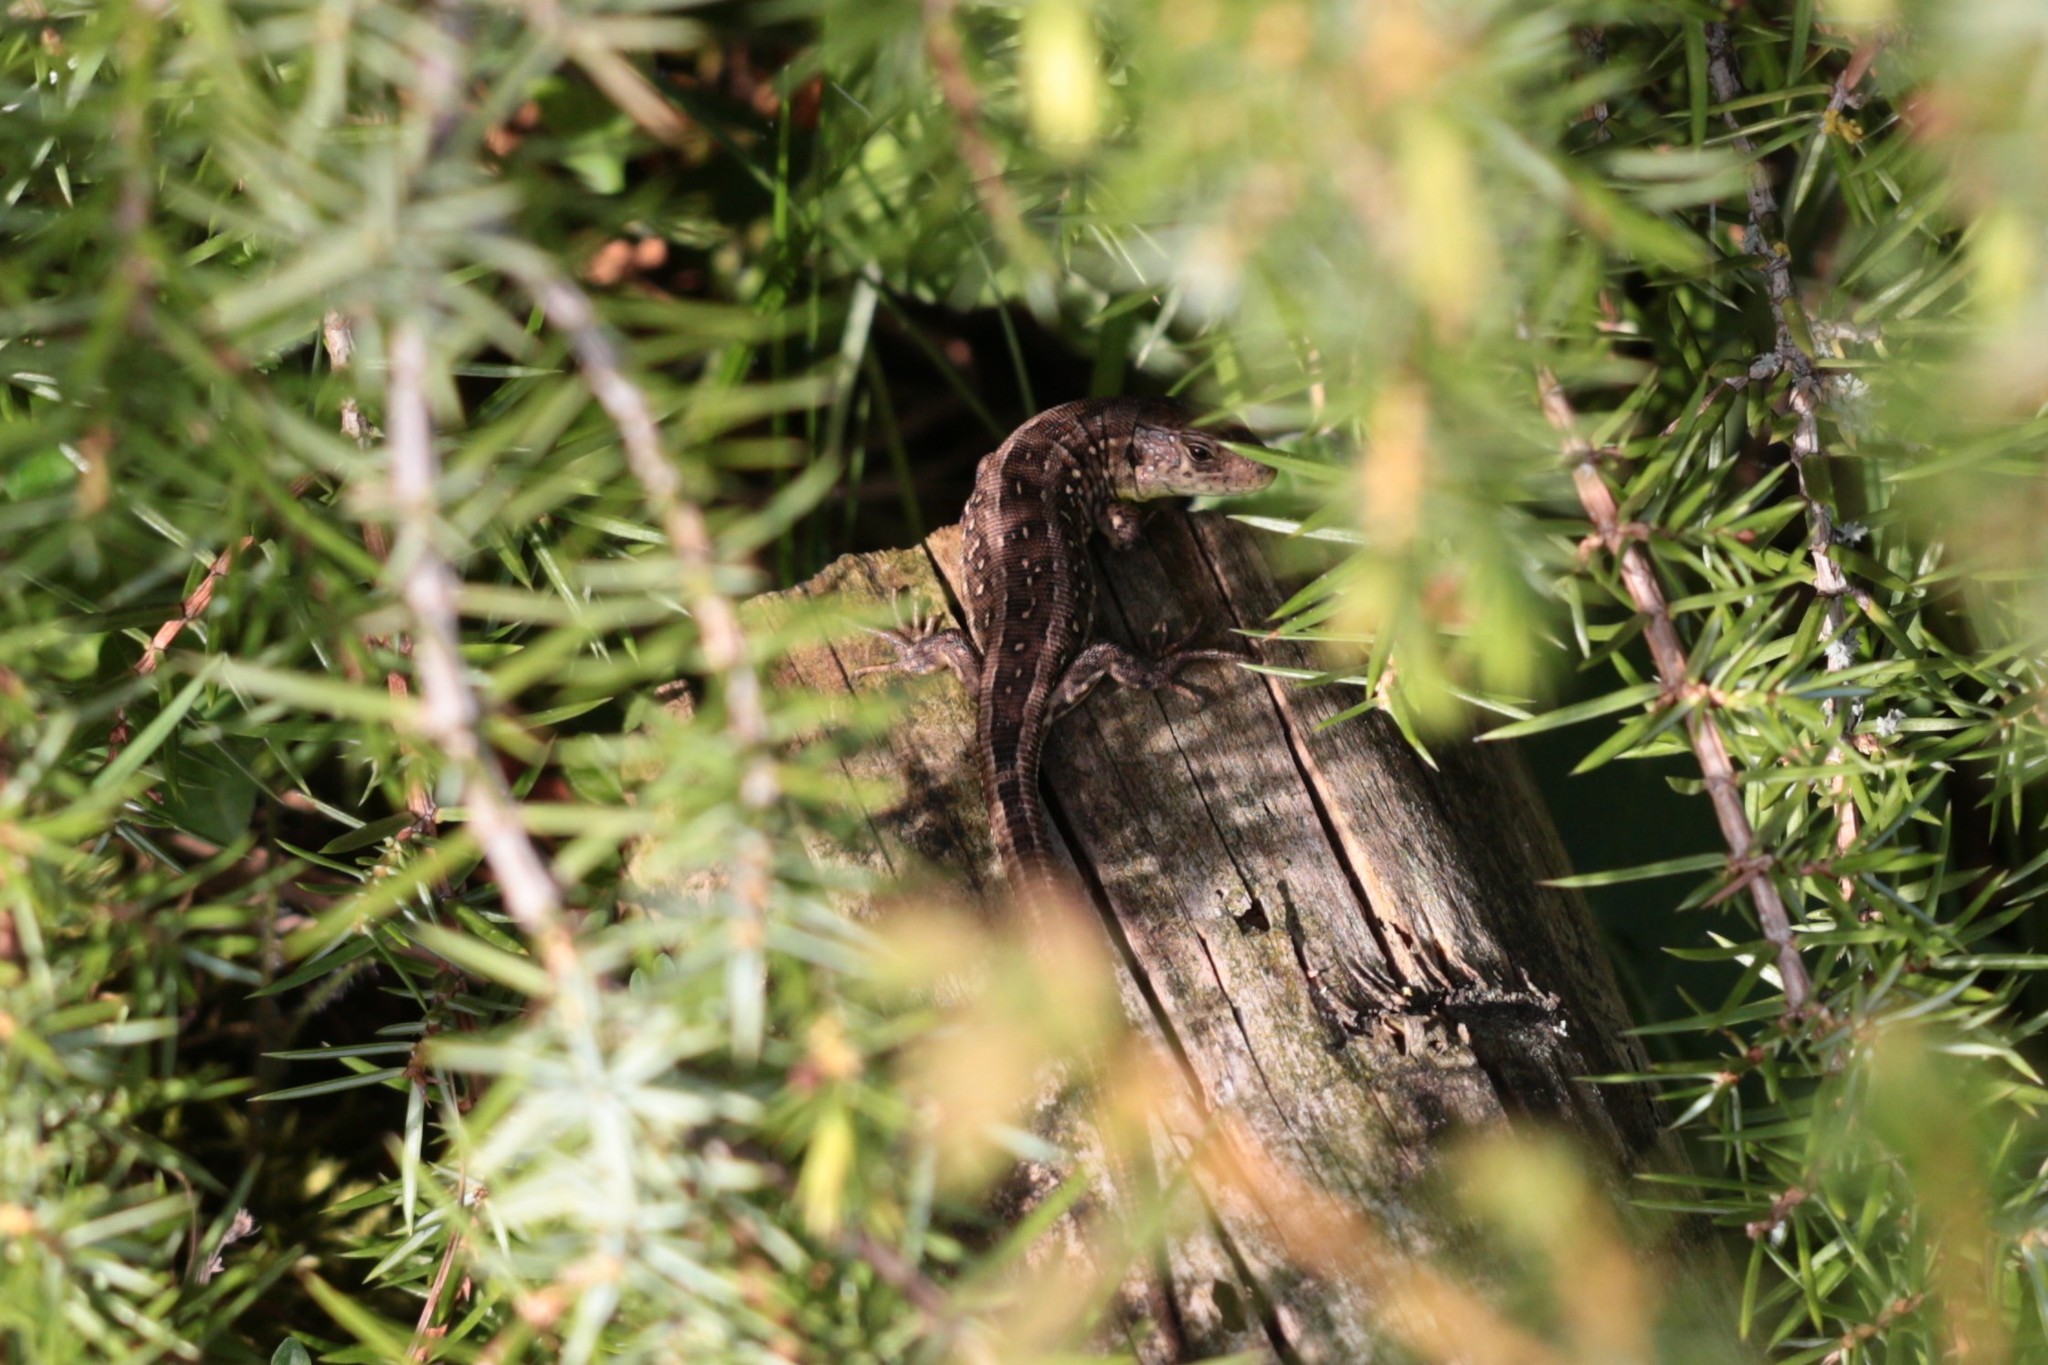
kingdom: Animalia
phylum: Chordata
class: Squamata
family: Lacertidae
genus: Lacerta
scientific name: Lacerta agilis
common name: Sand lizard
